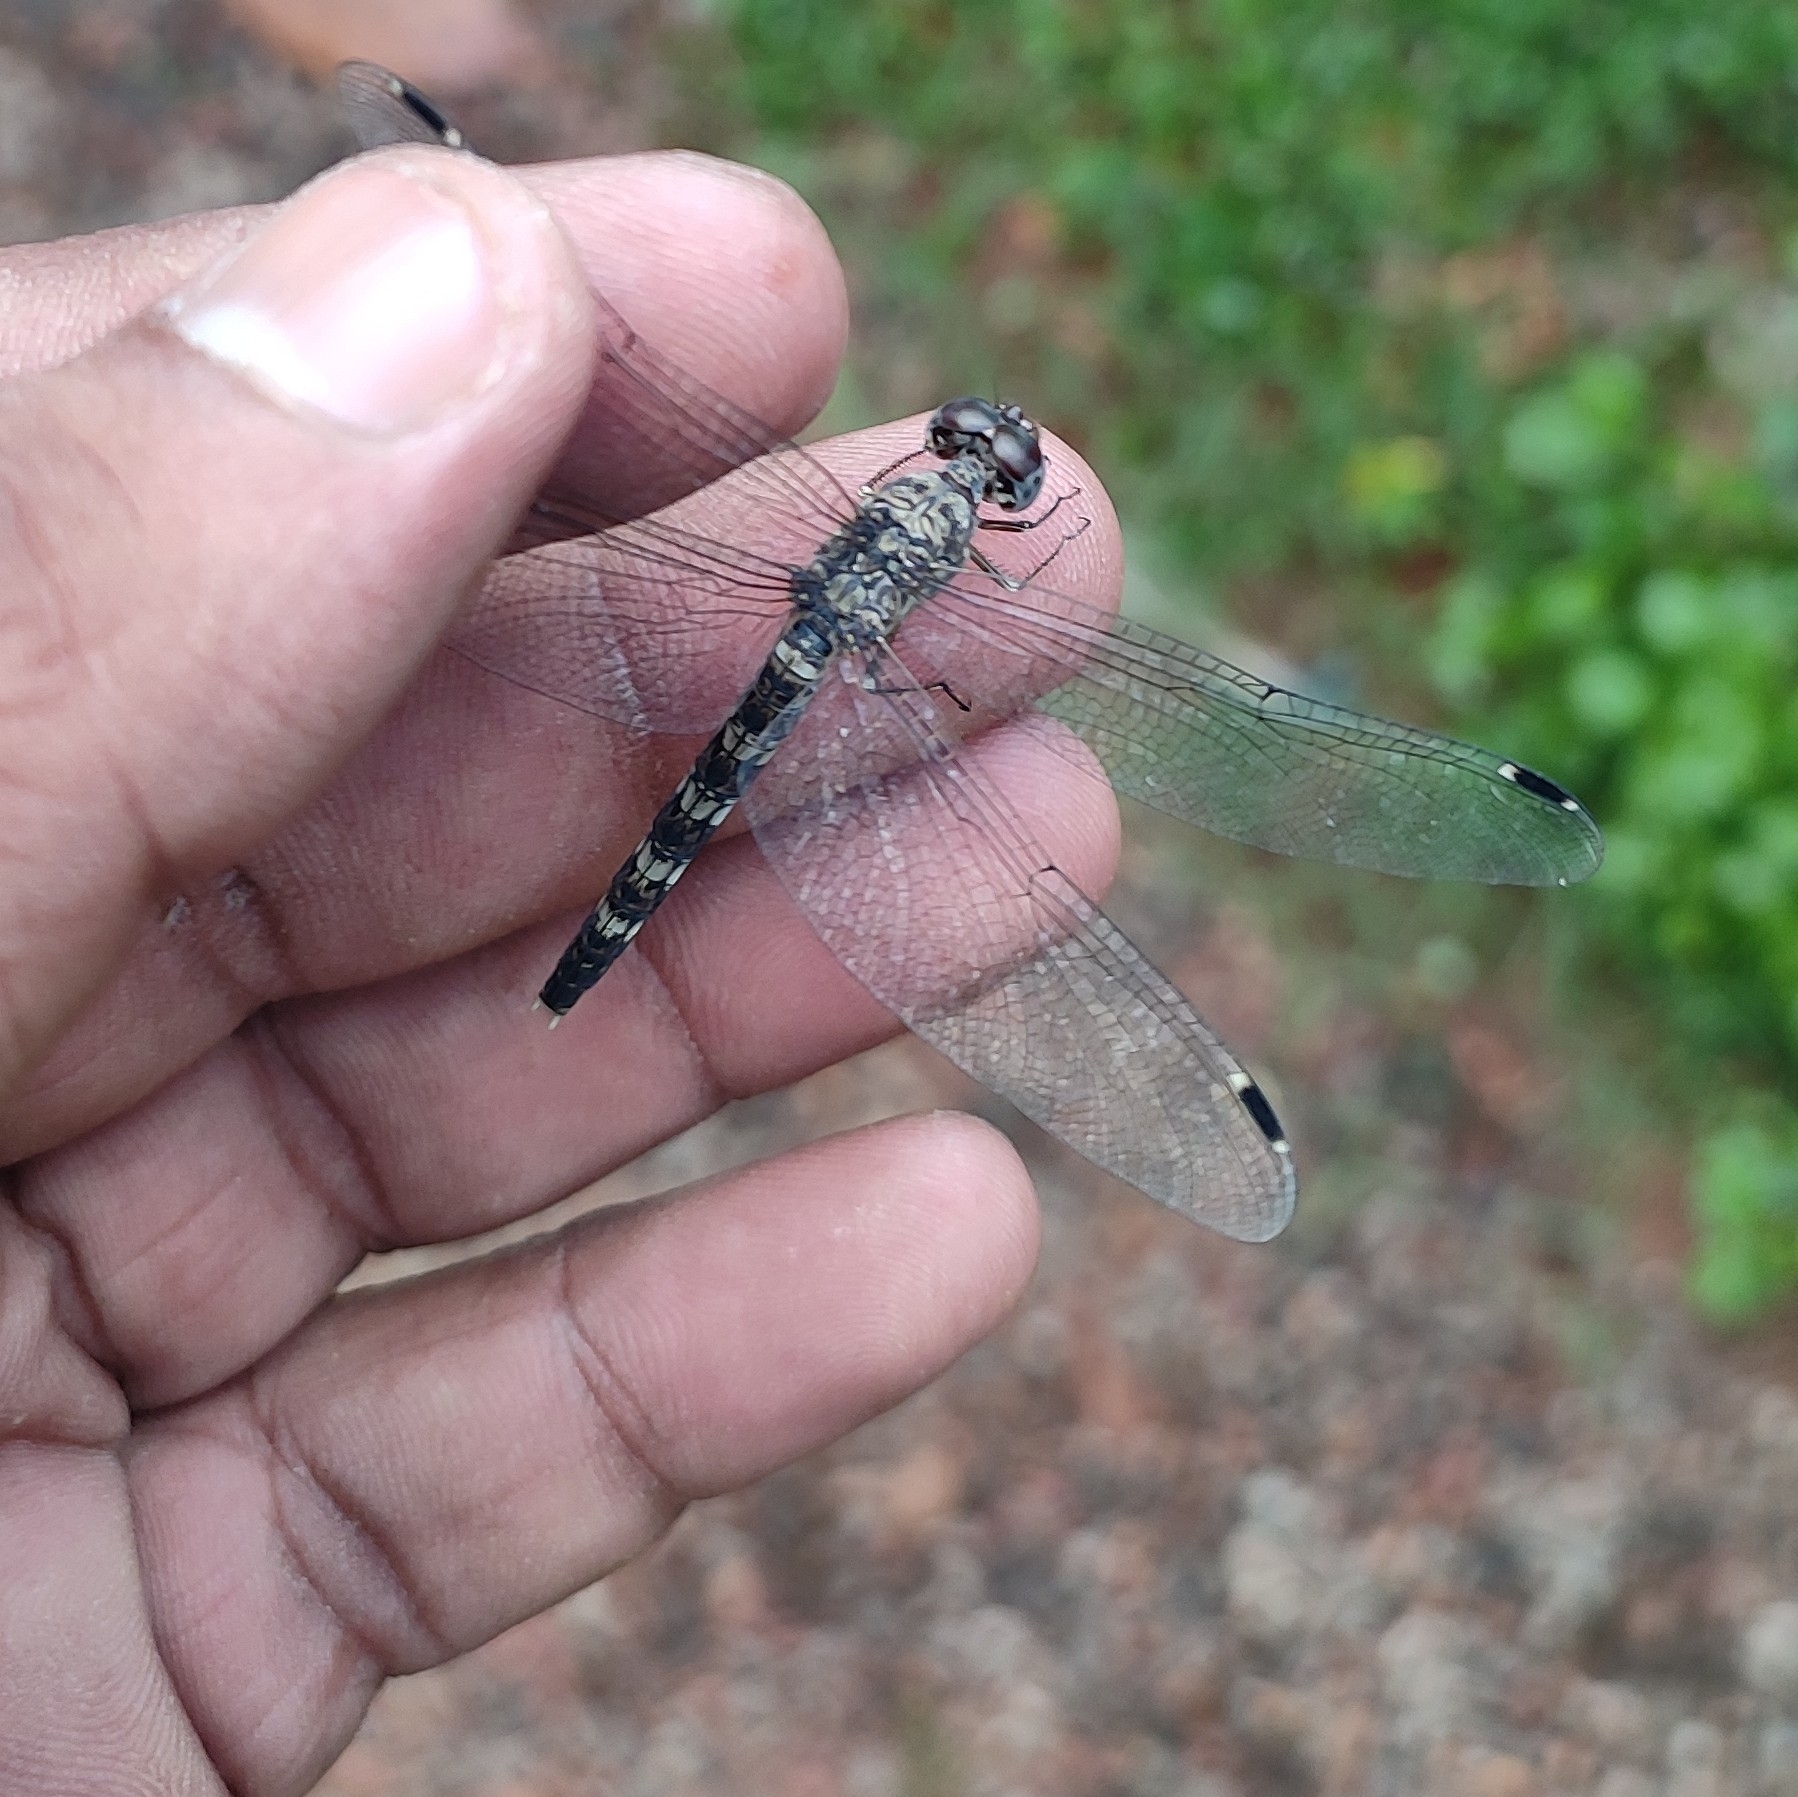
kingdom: Animalia
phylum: Arthropoda
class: Insecta
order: Odonata
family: Libellulidae
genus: Bradinopyga
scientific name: Bradinopyga geminata
